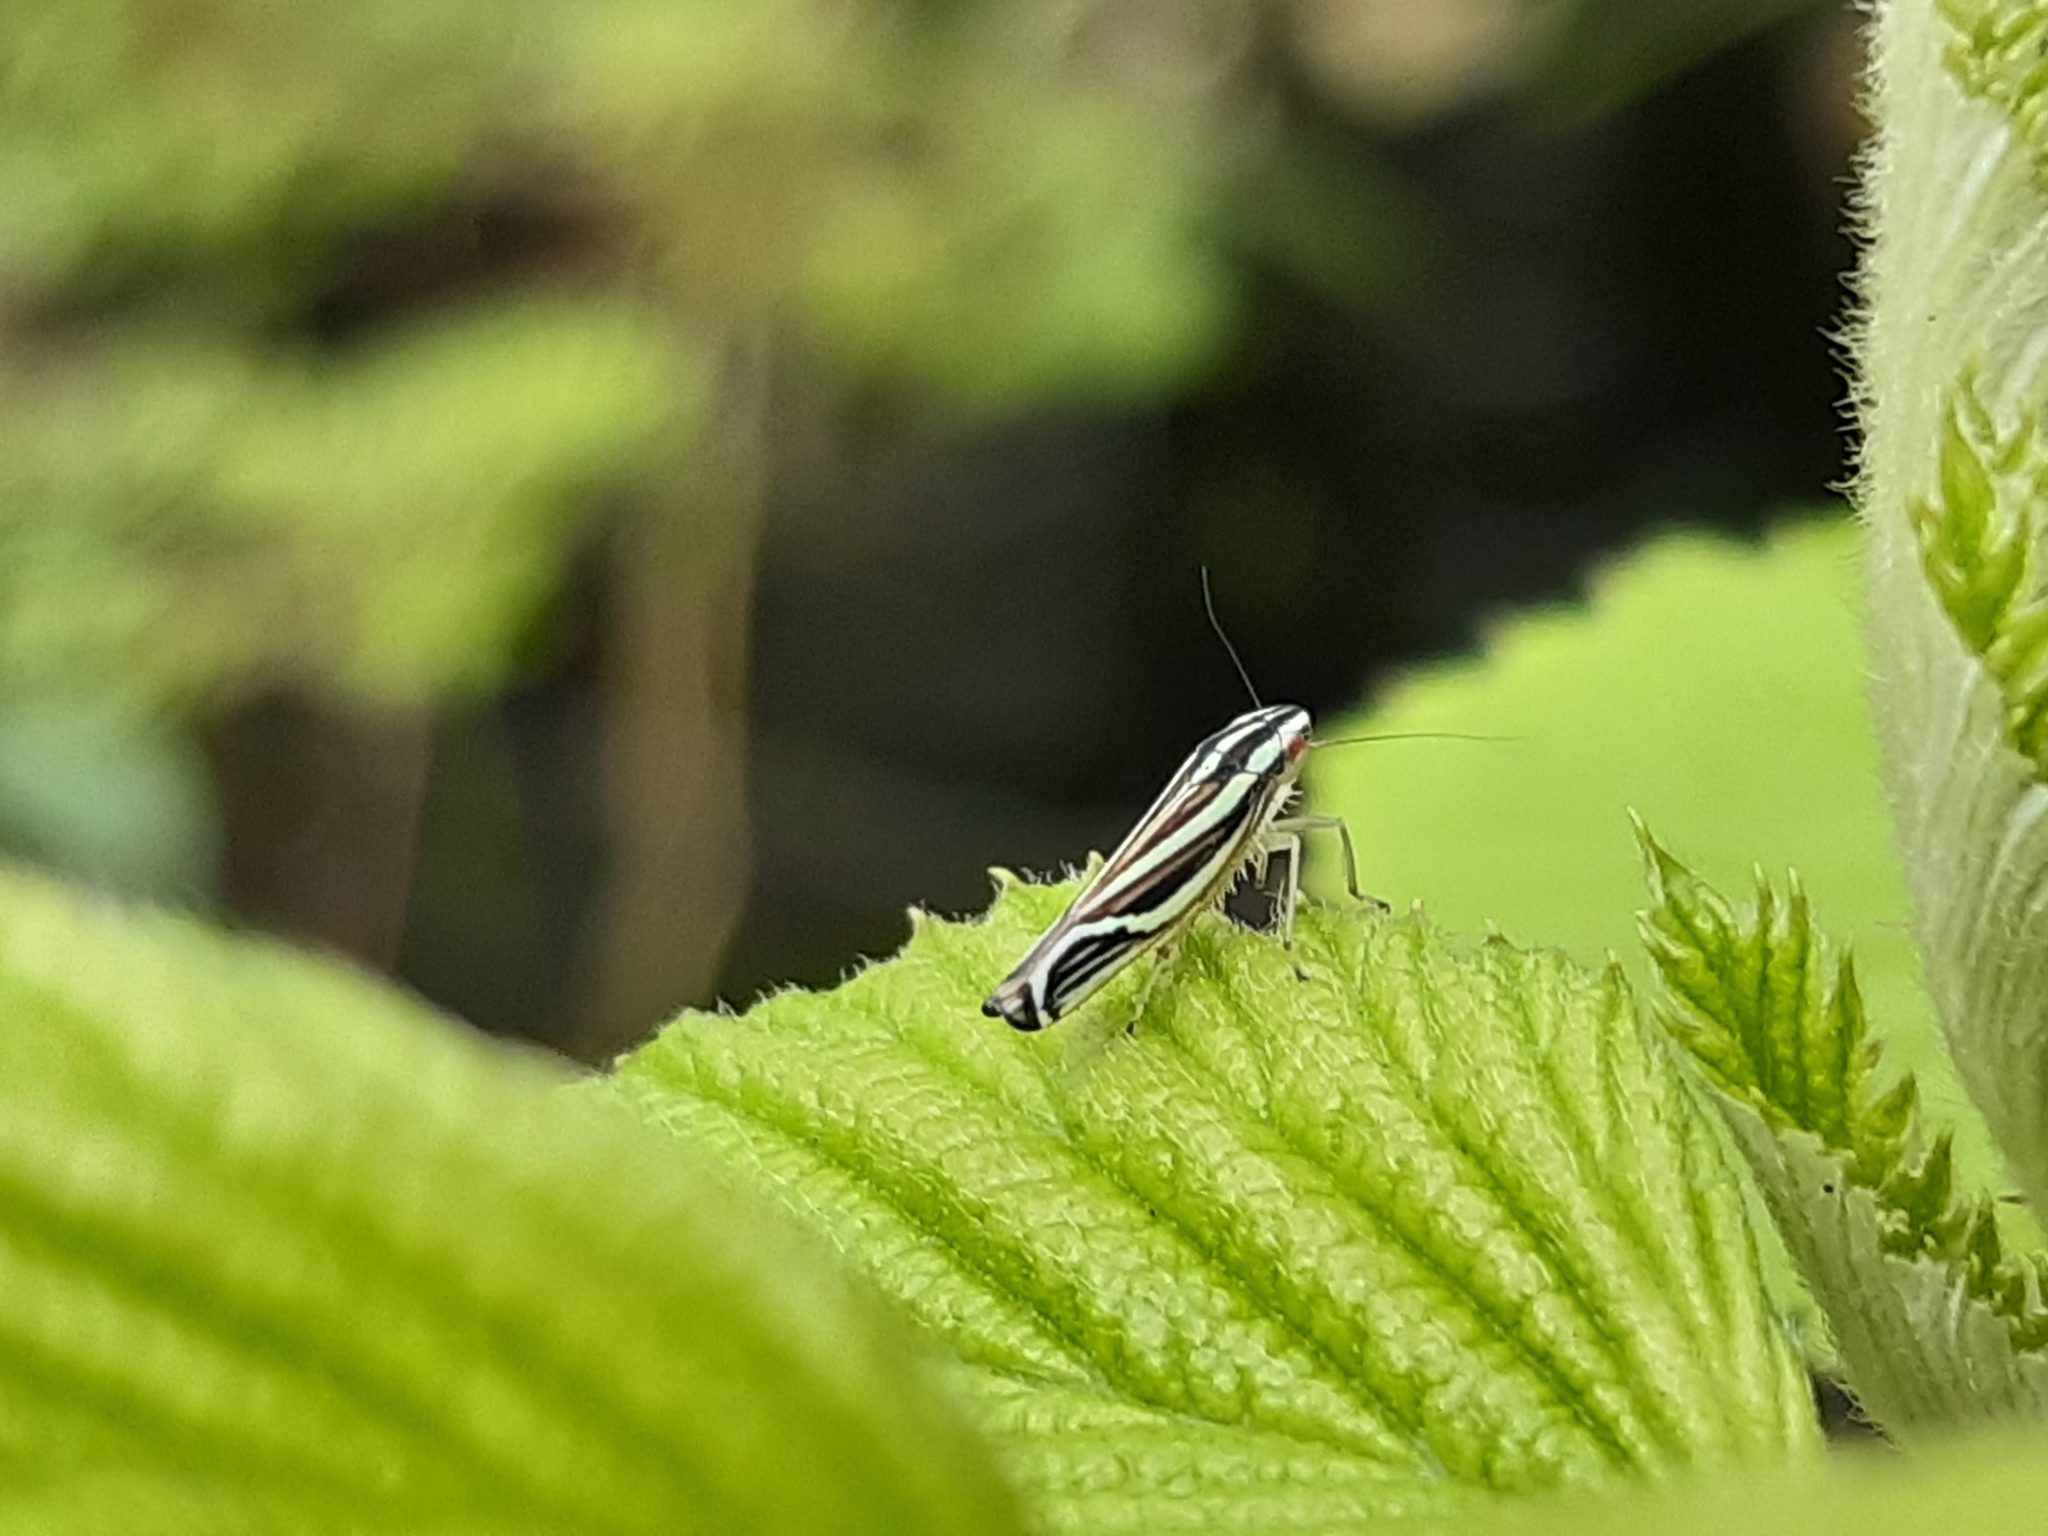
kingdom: Animalia
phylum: Arthropoda
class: Insecta
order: Hemiptera
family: Cicadellidae
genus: Sibovia
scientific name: Sibovia sagata
